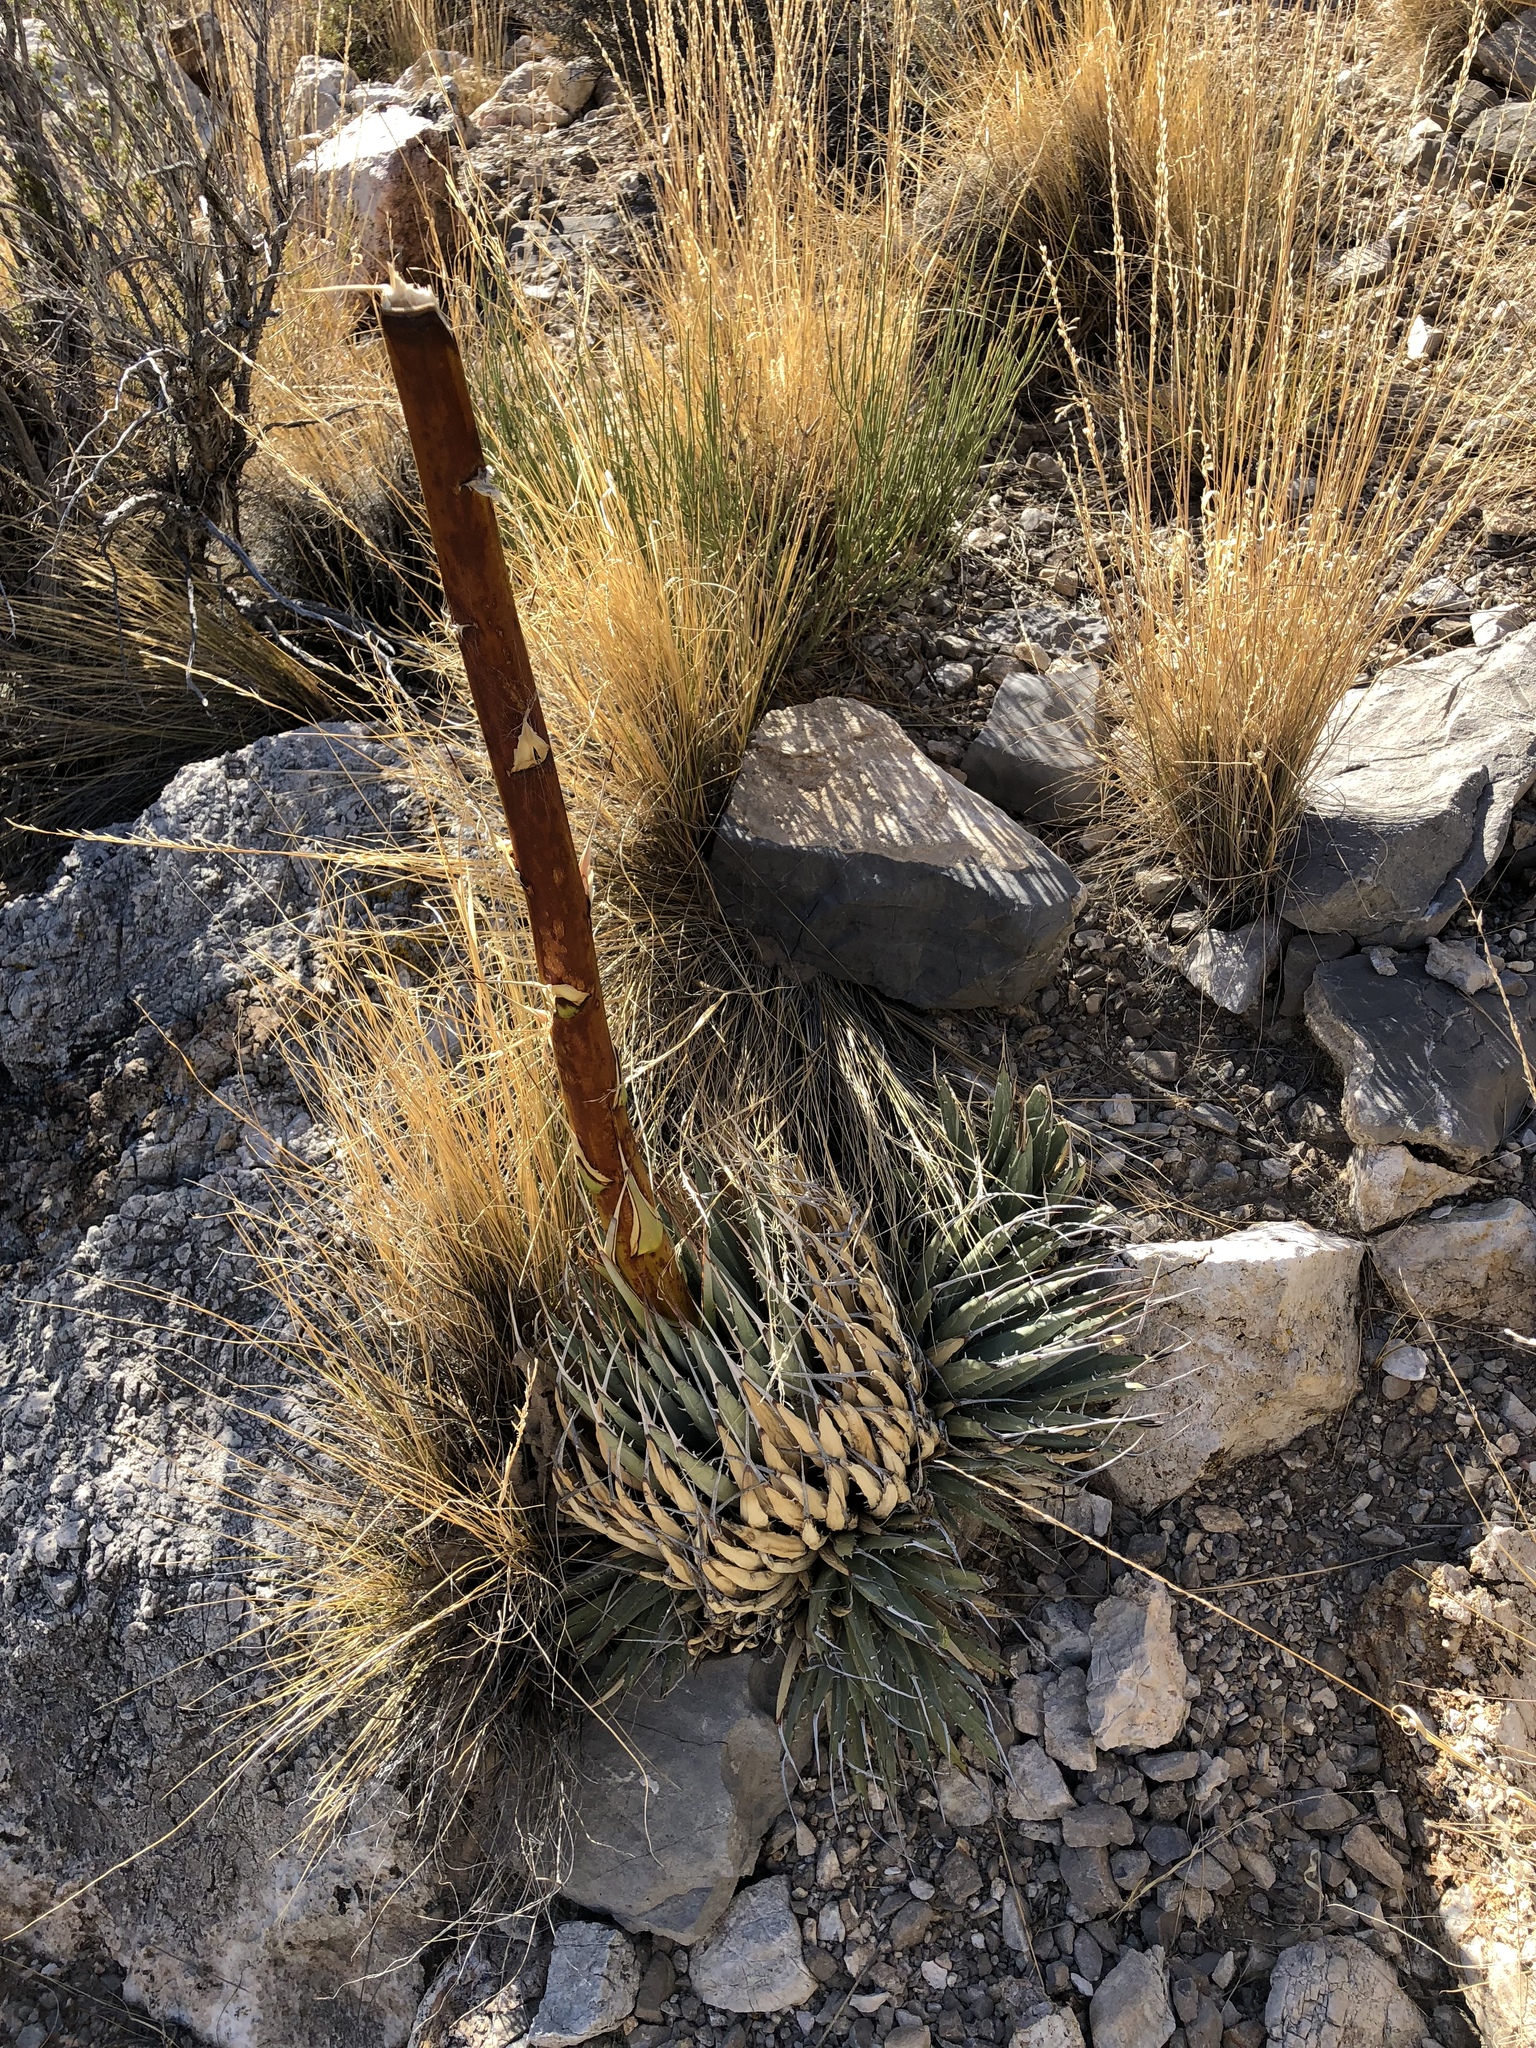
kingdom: Plantae
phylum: Tracheophyta
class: Liliopsida
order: Asparagales
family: Asparagaceae
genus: Agave
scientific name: Agave utahensis
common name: Utah agave
